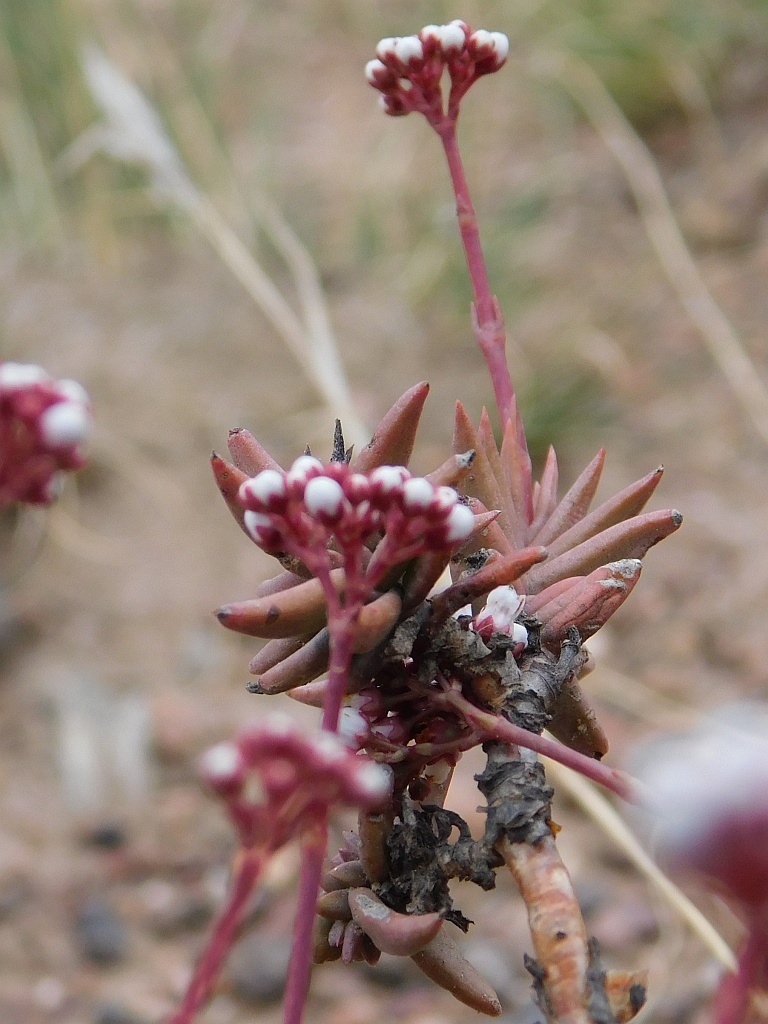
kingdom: Plantae
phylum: Tracheophyta
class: Magnoliopsida
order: Saxifragales
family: Crassulaceae
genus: Crassula
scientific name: Crassula tetragona
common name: Pygmyweed
